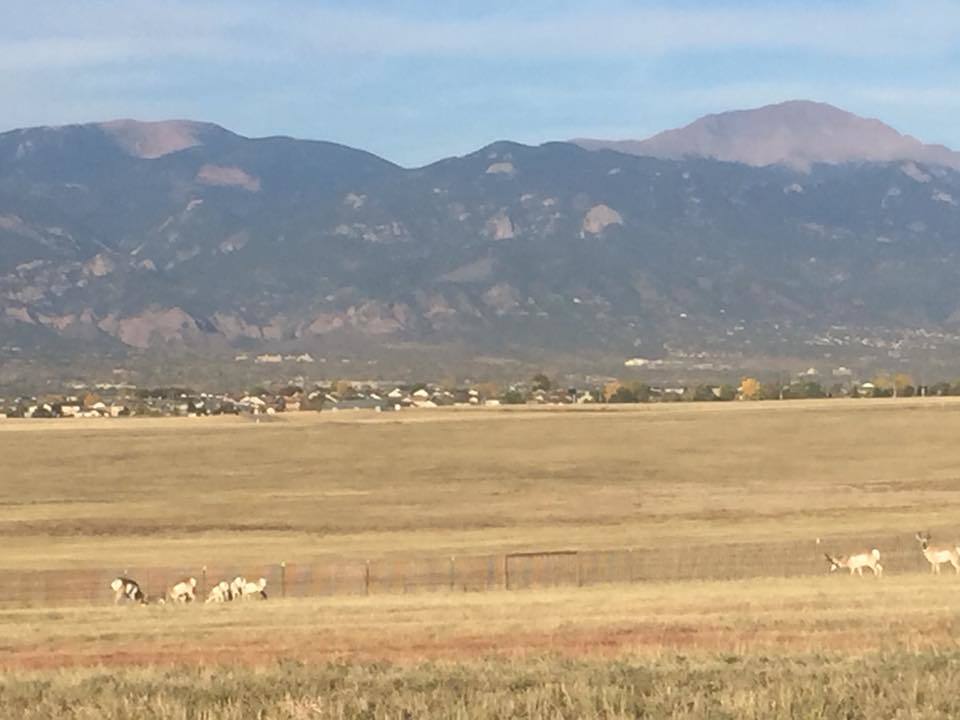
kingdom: Animalia
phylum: Chordata
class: Mammalia
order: Artiodactyla
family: Antilocapridae
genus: Antilocapra
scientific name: Antilocapra americana
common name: Pronghorn
